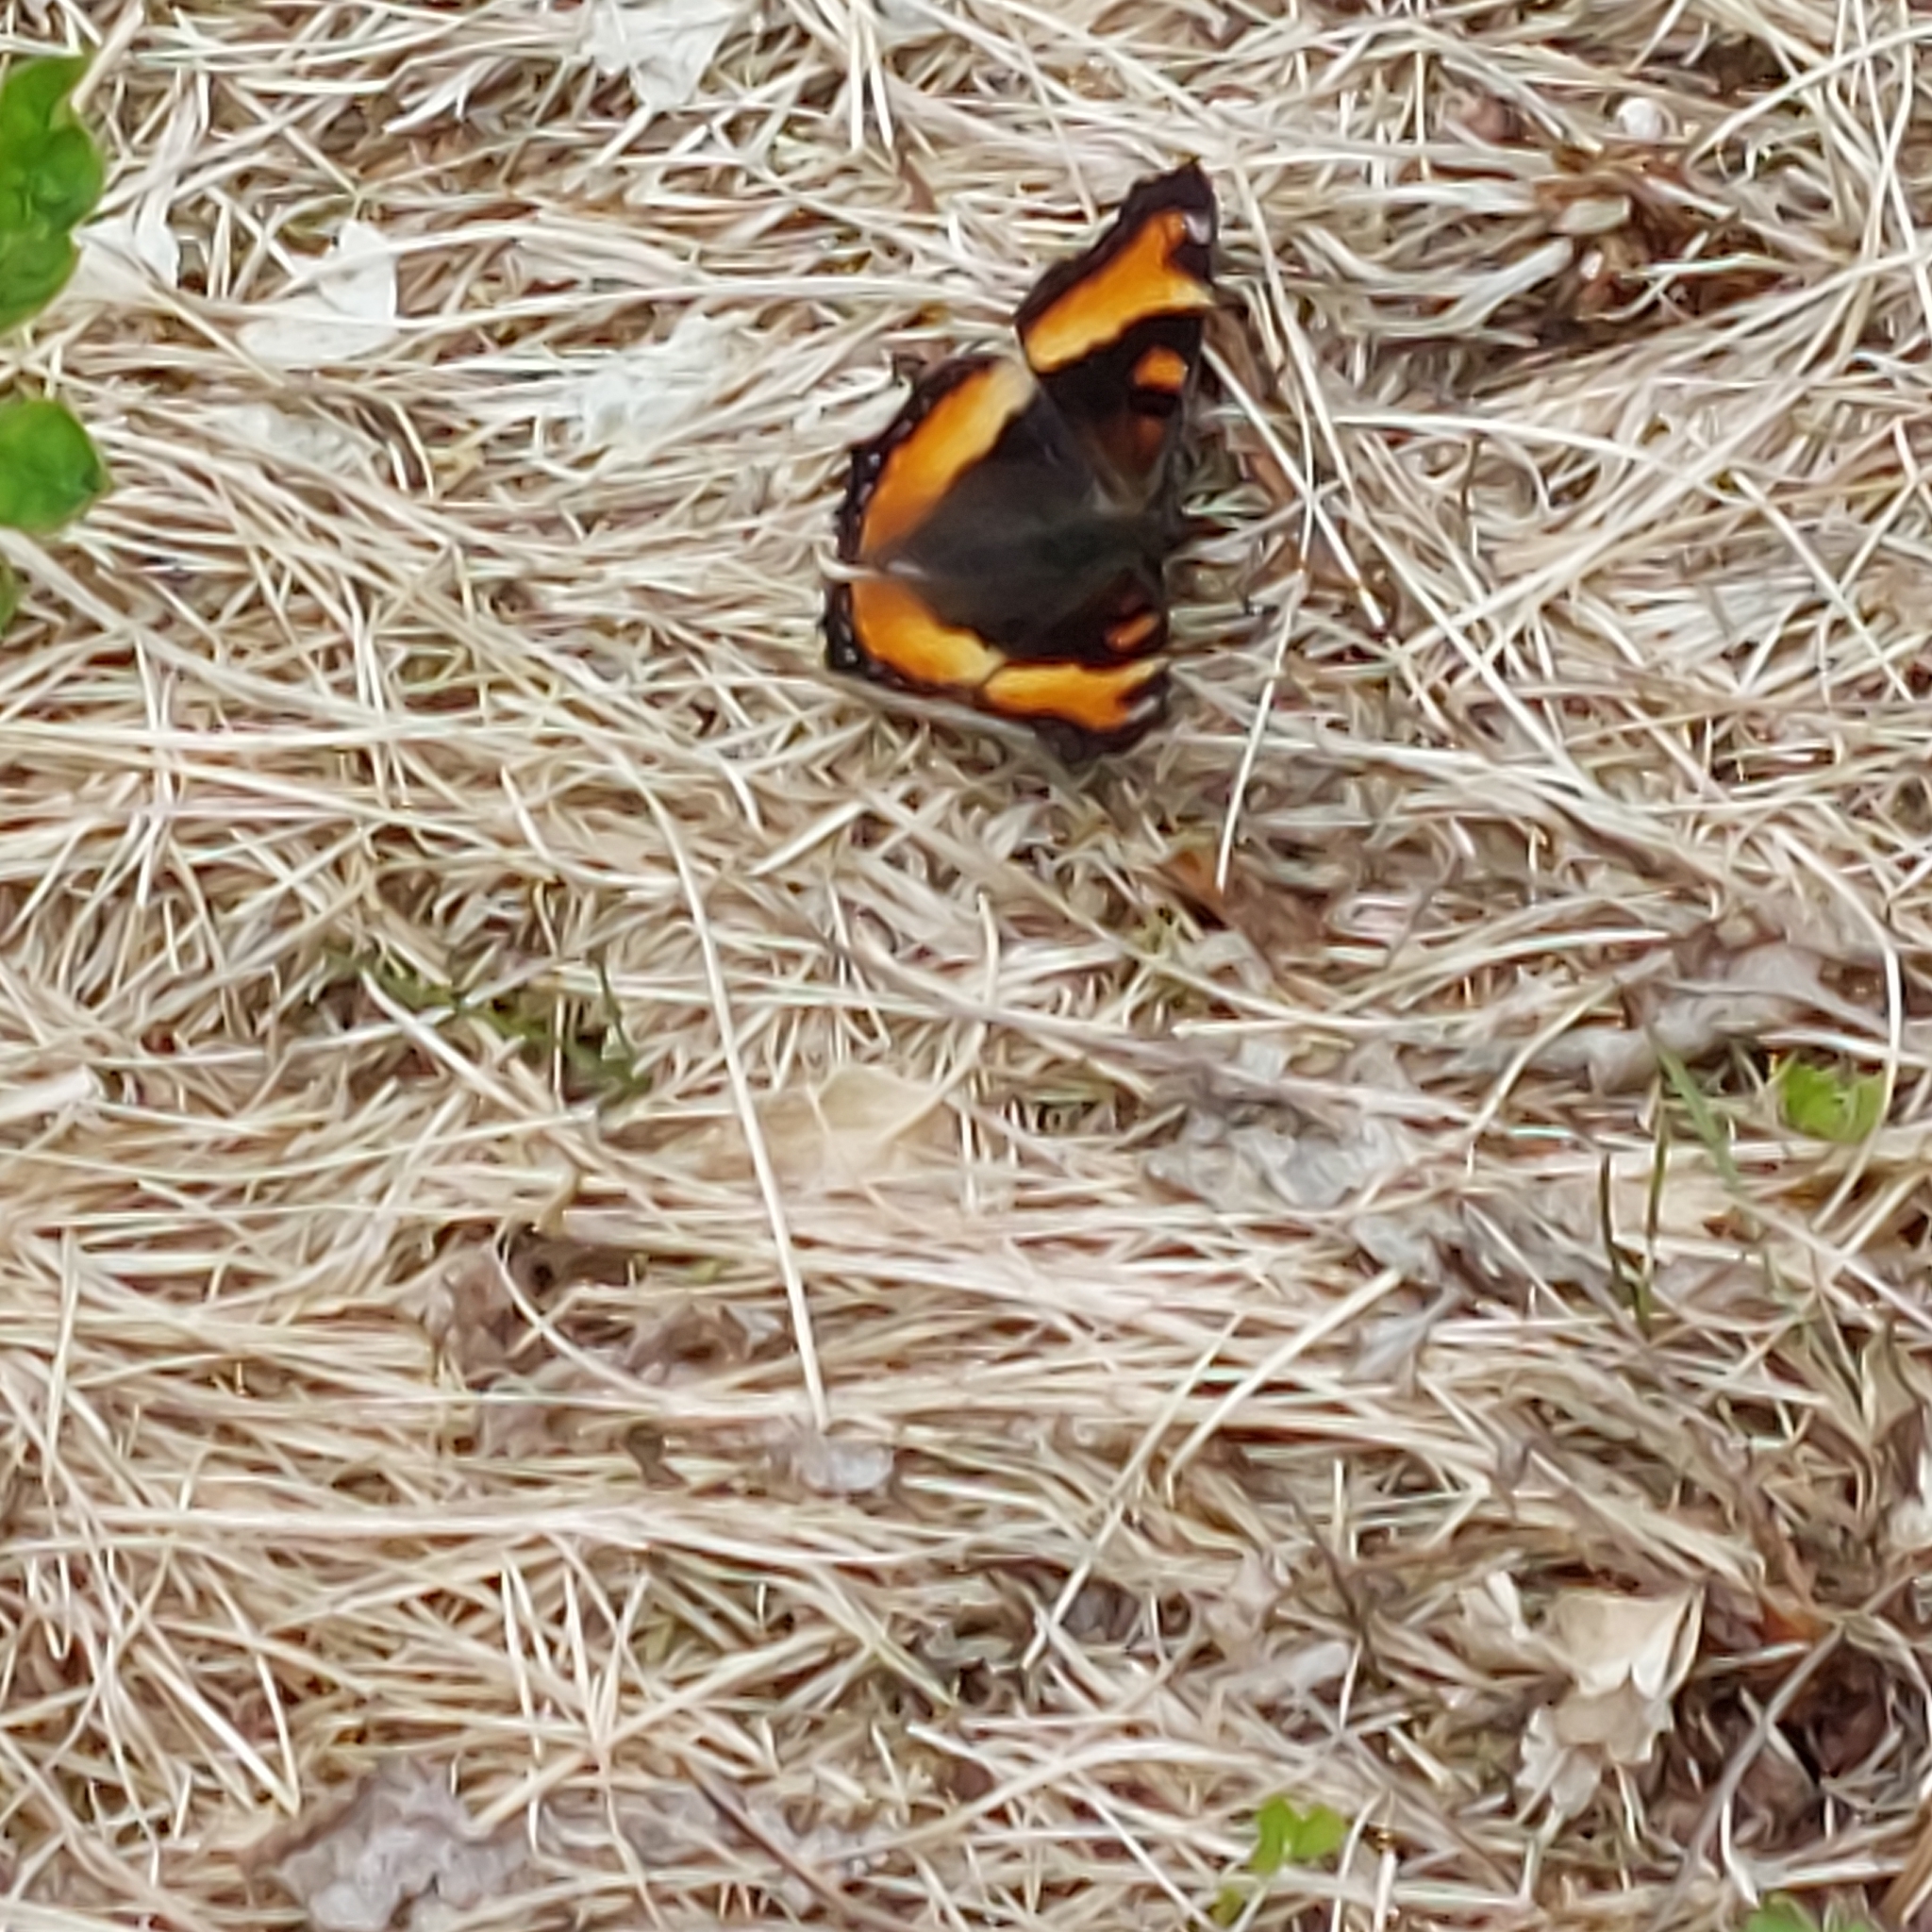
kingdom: Animalia
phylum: Arthropoda
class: Insecta
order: Lepidoptera
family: Nymphalidae
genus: Aglais
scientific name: Aglais milberti
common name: Milbert's tortoiseshell
